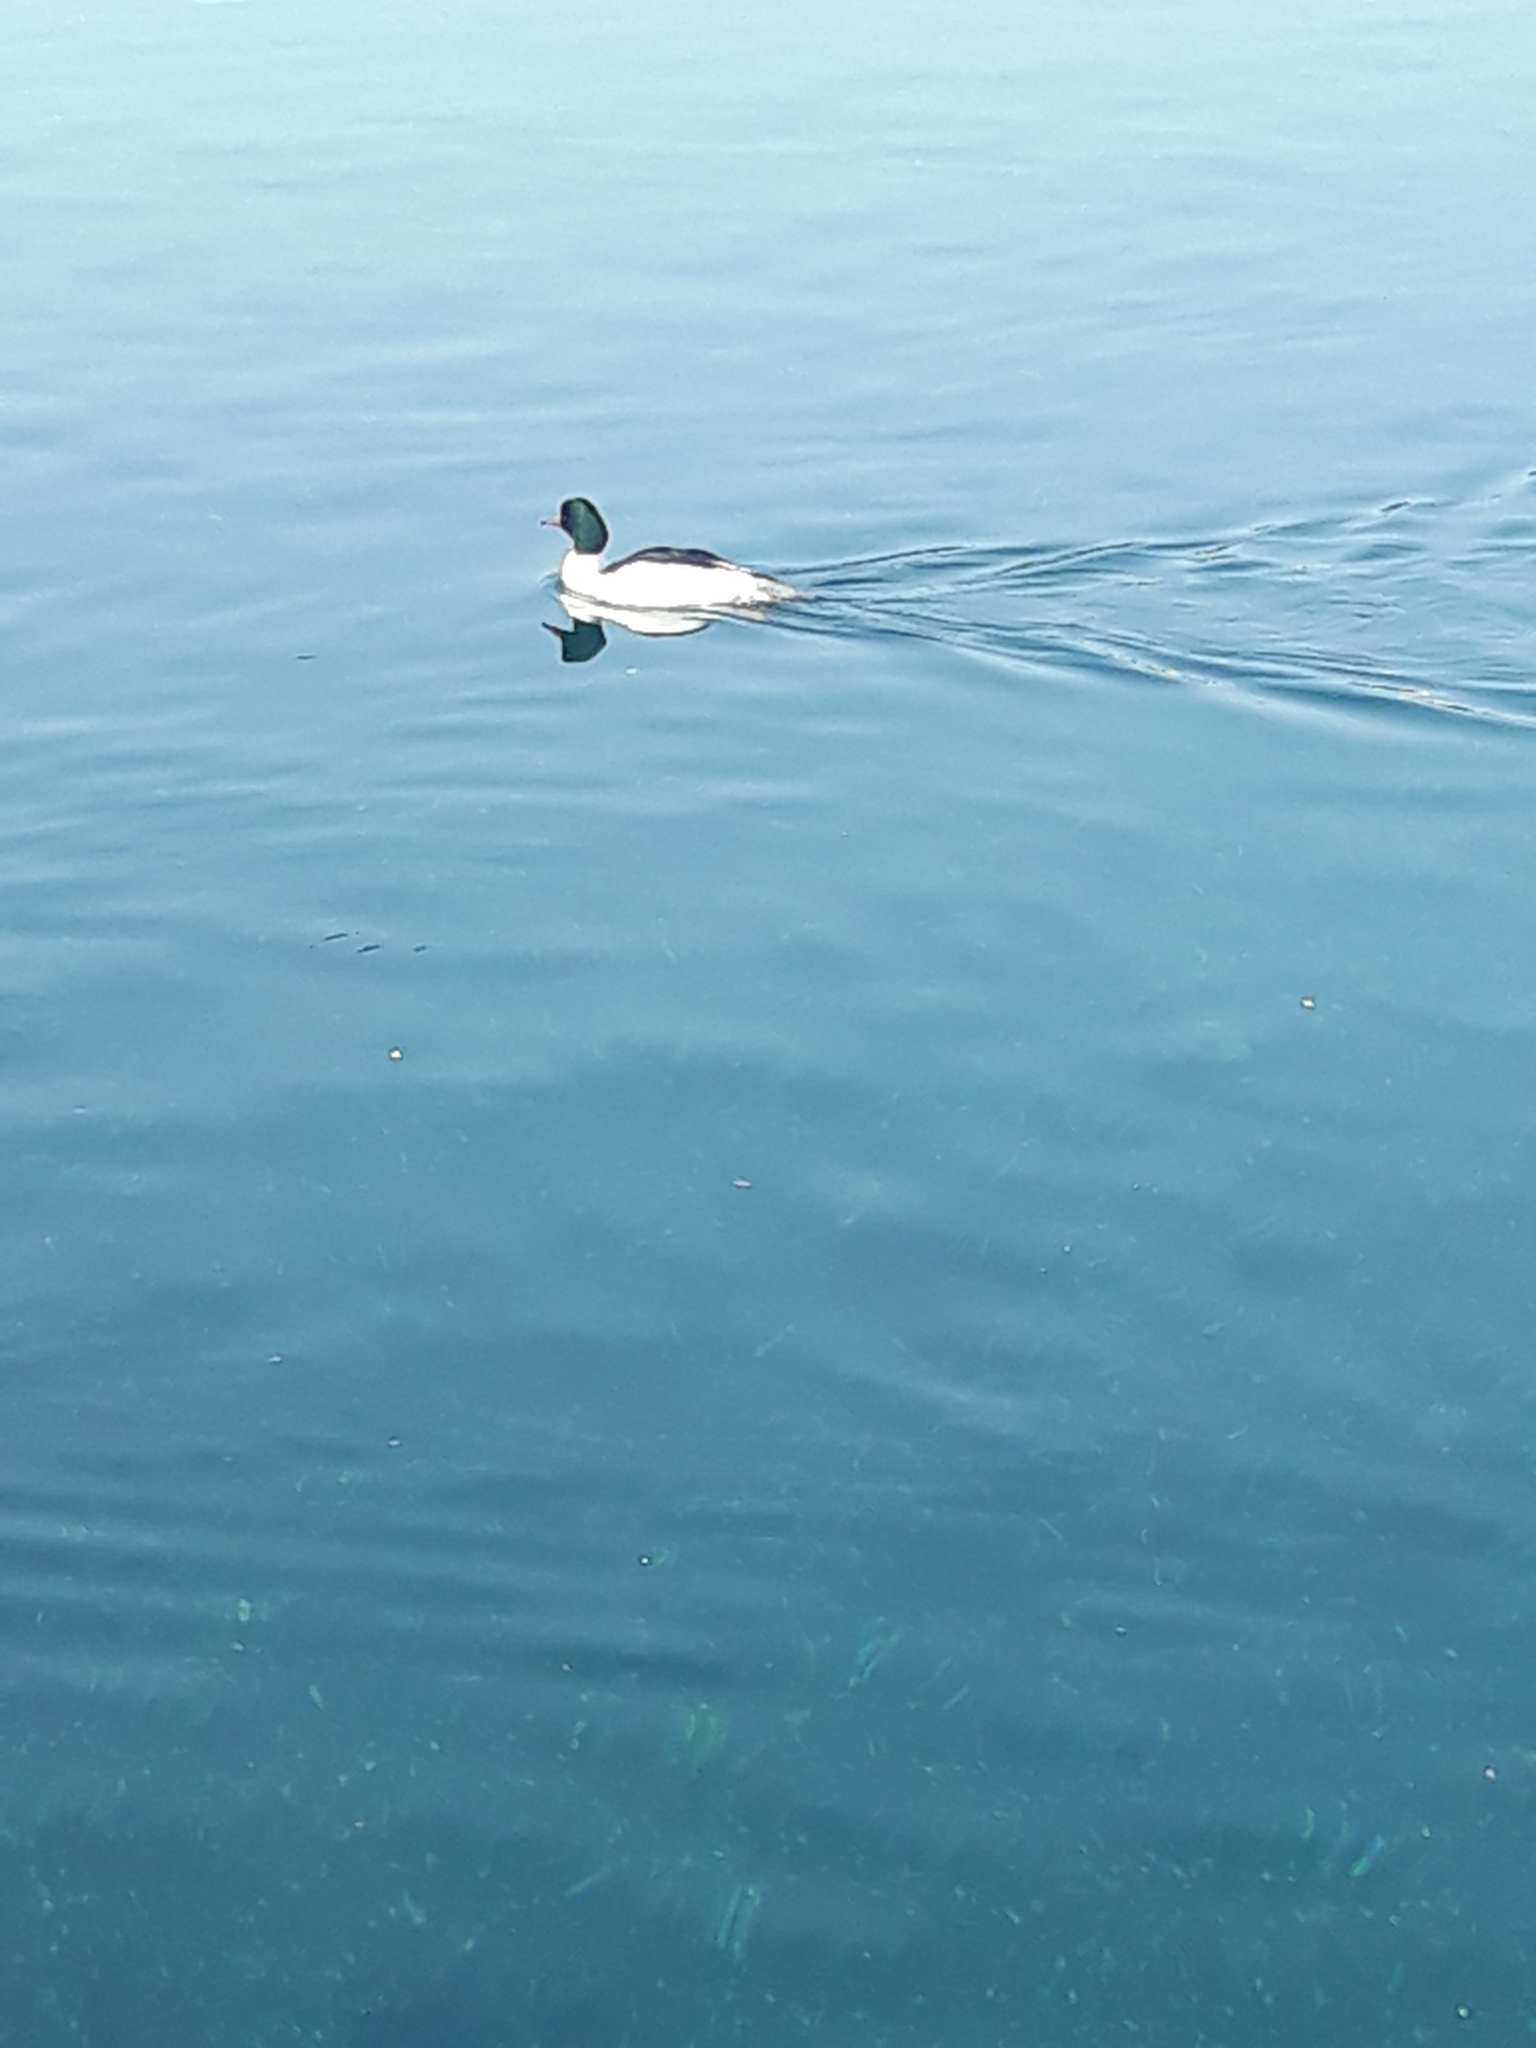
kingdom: Animalia
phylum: Chordata
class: Aves
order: Anseriformes
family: Anatidae
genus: Mergus
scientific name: Mergus merganser
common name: Common merganser
